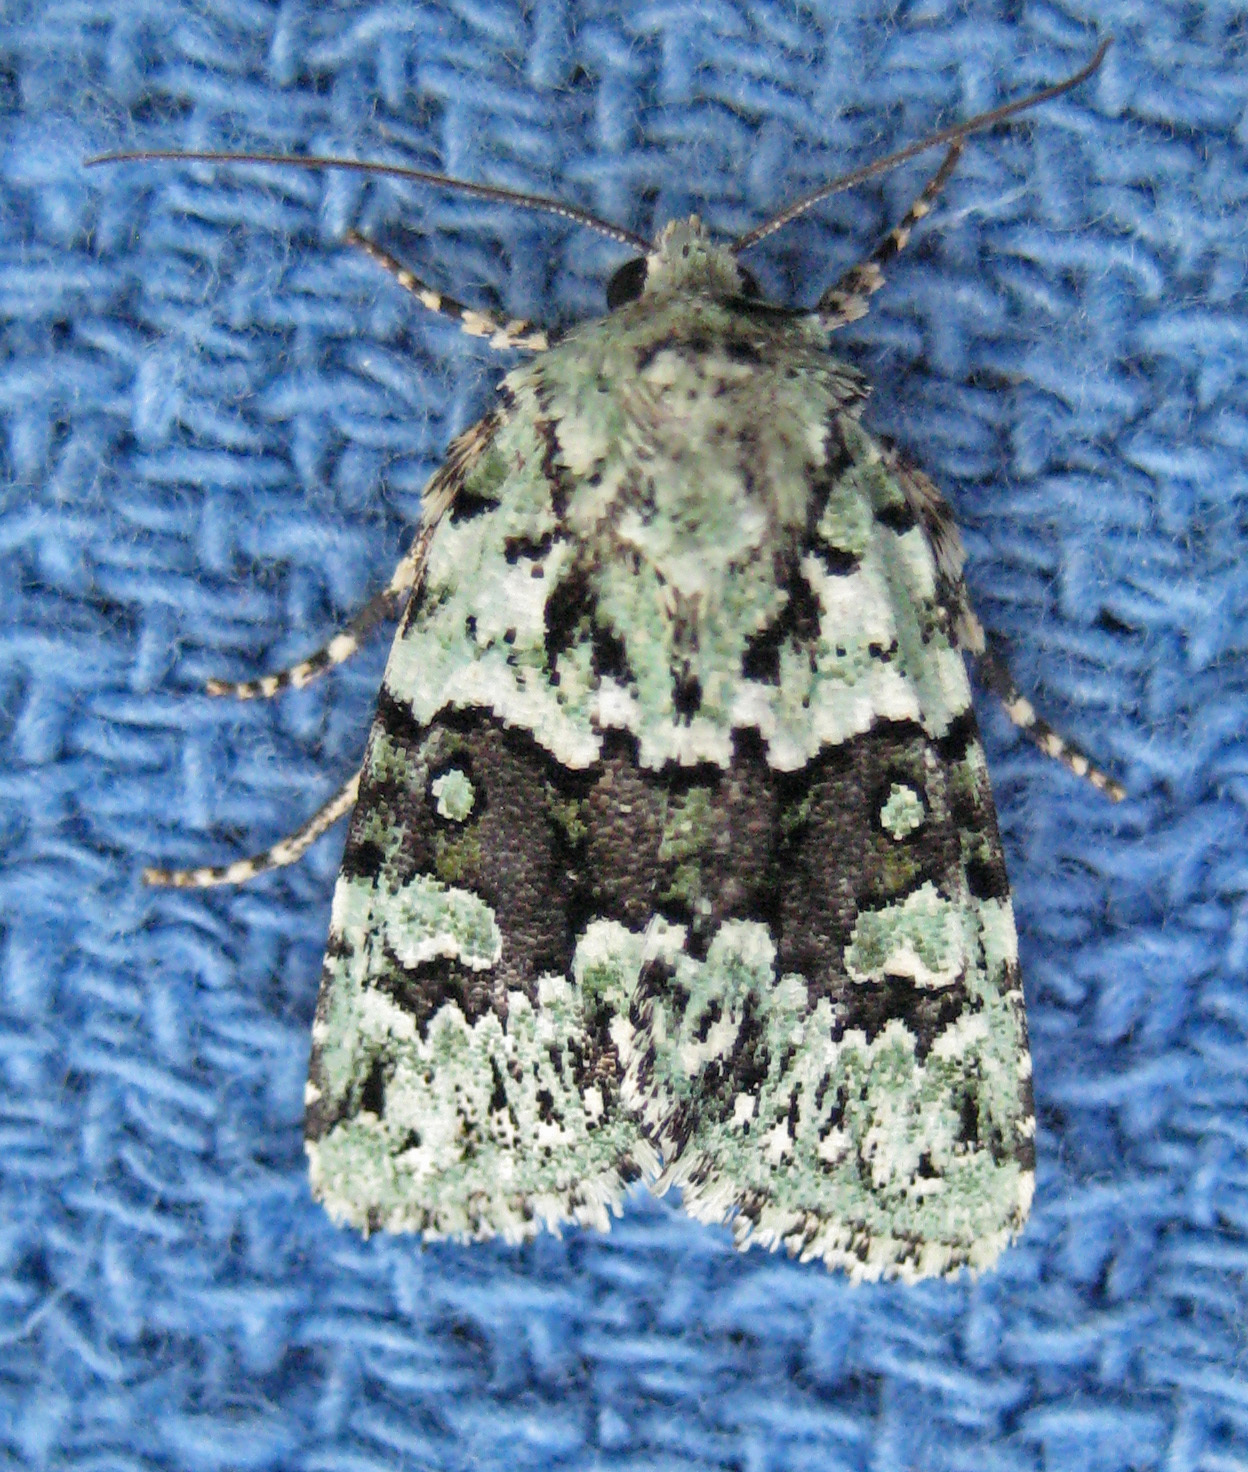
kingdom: Animalia
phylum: Arthropoda
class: Insecta
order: Lepidoptera
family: Noctuidae
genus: Lacinipolia
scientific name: Lacinipolia implicata
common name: Implicit arches
